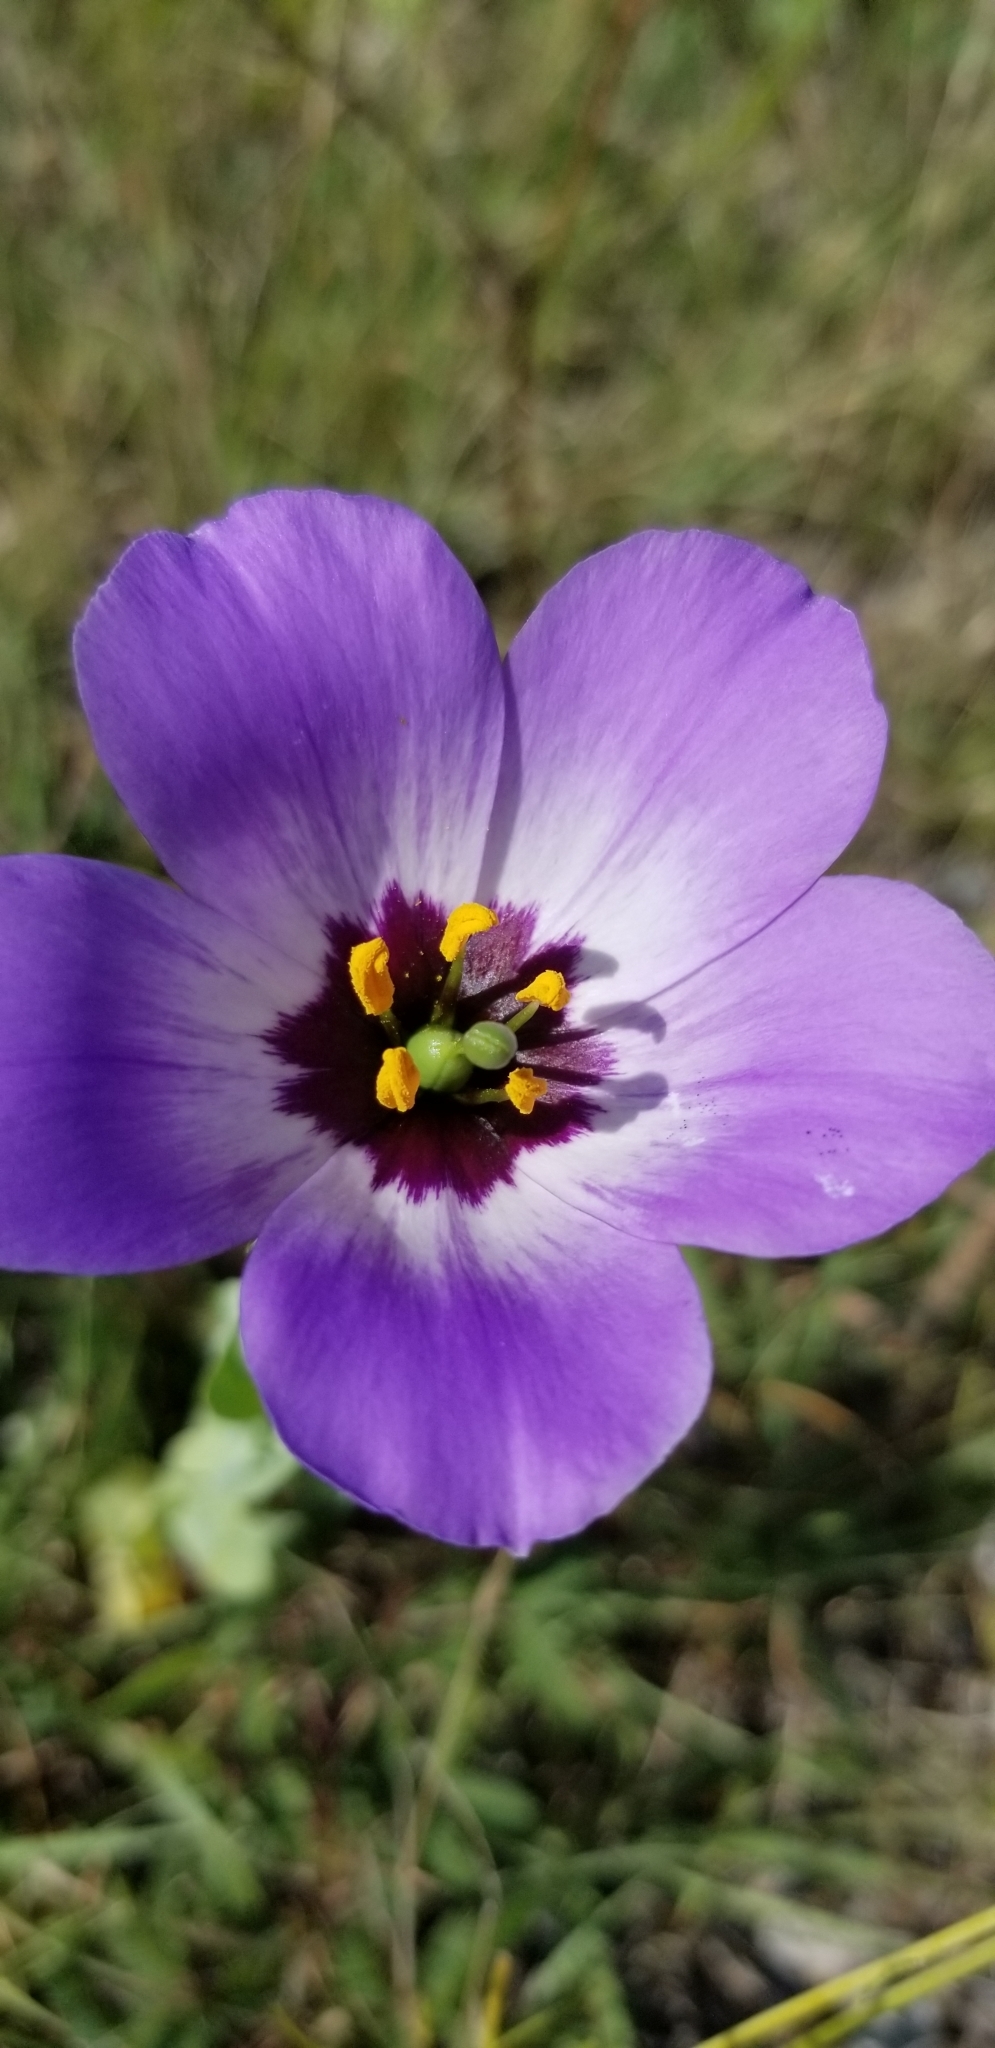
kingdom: Plantae
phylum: Tracheophyta
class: Magnoliopsida
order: Gentianales
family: Gentianaceae
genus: Eustoma
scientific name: Eustoma russellianum
